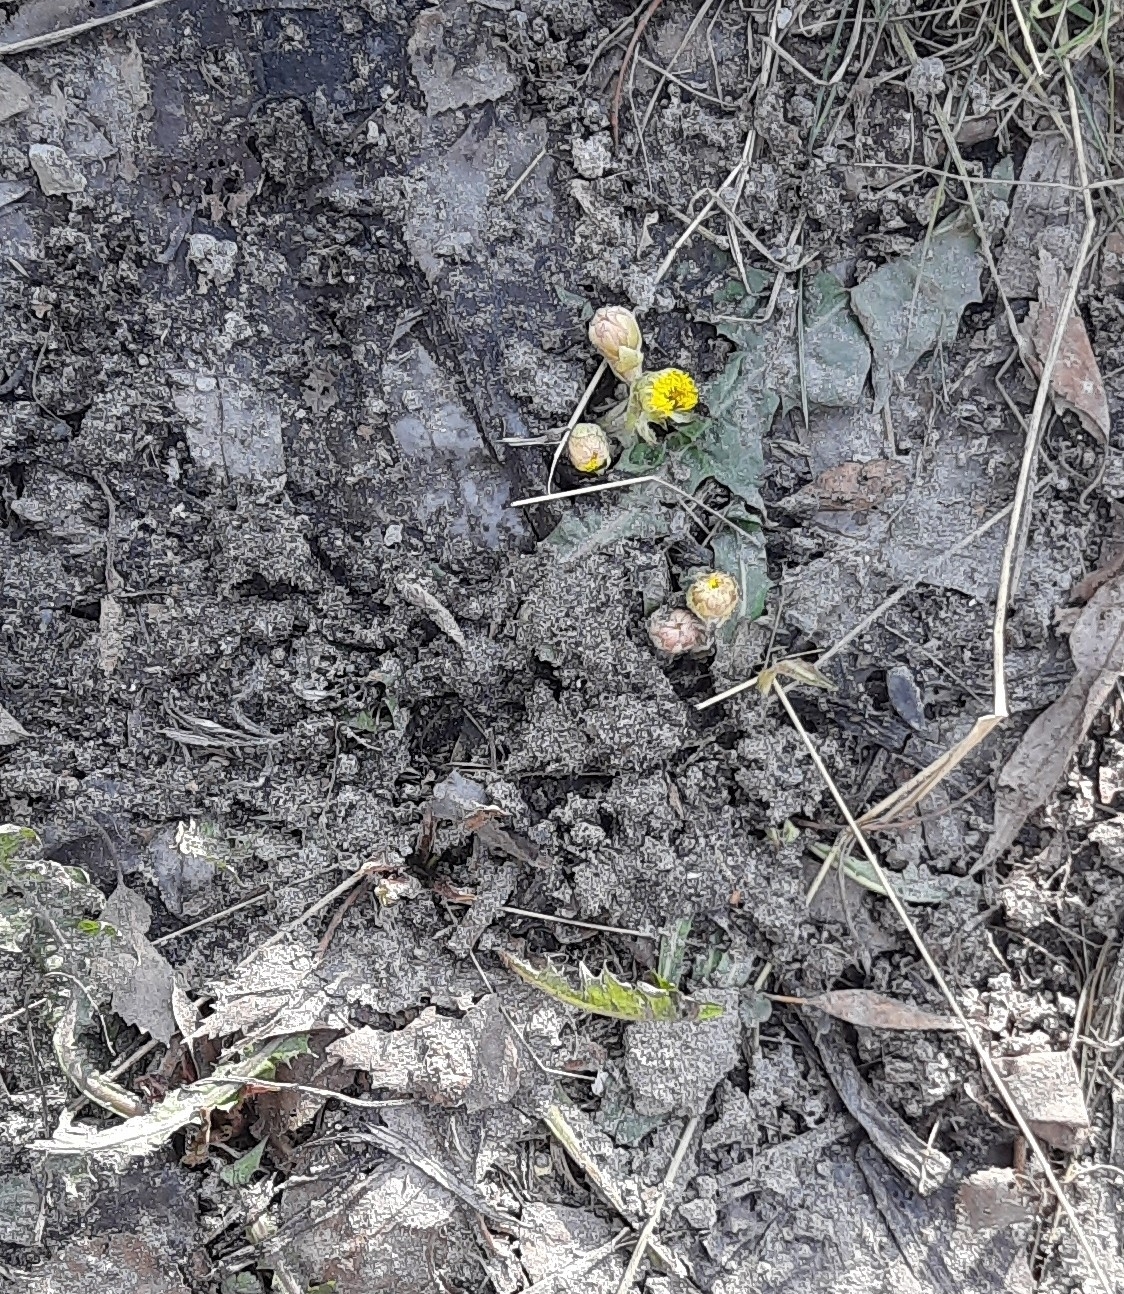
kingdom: Plantae
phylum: Tracheophyta
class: Magnoliopsida
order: Asterales
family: Asteraceae
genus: Tussilago
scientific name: Tussilago farfara
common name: Coltsfoot
